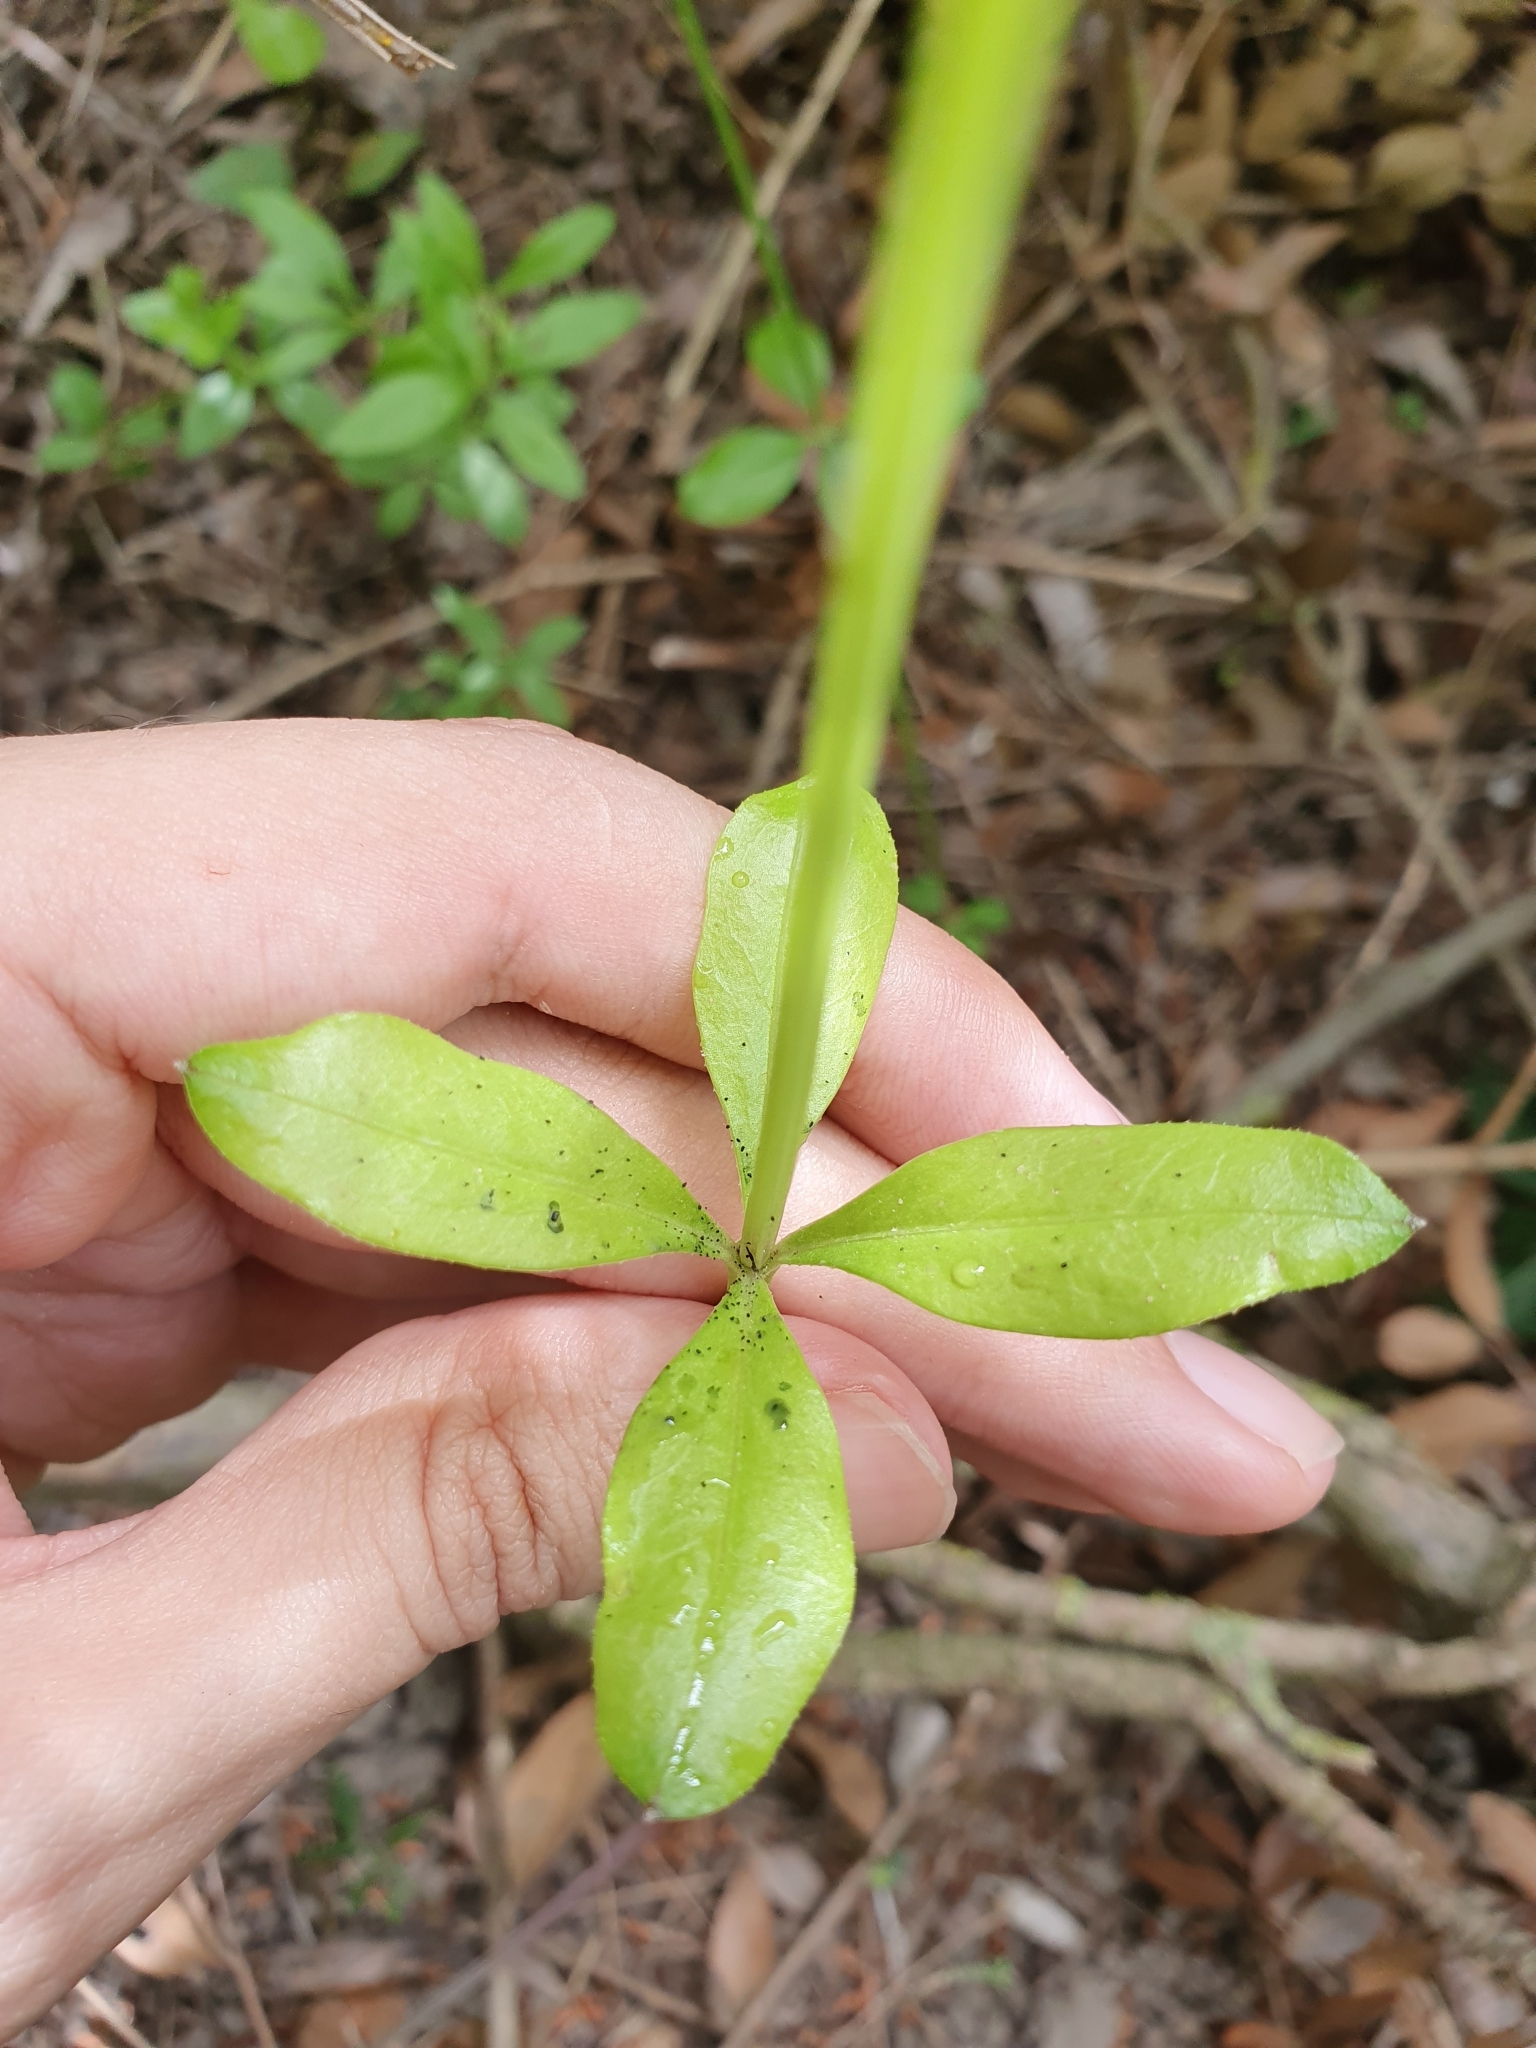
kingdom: Plantae
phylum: Tracheophyta
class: Magnoliopsida
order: Gentianales
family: Rubiaceae
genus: Asperula
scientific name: Asperula laevigata
